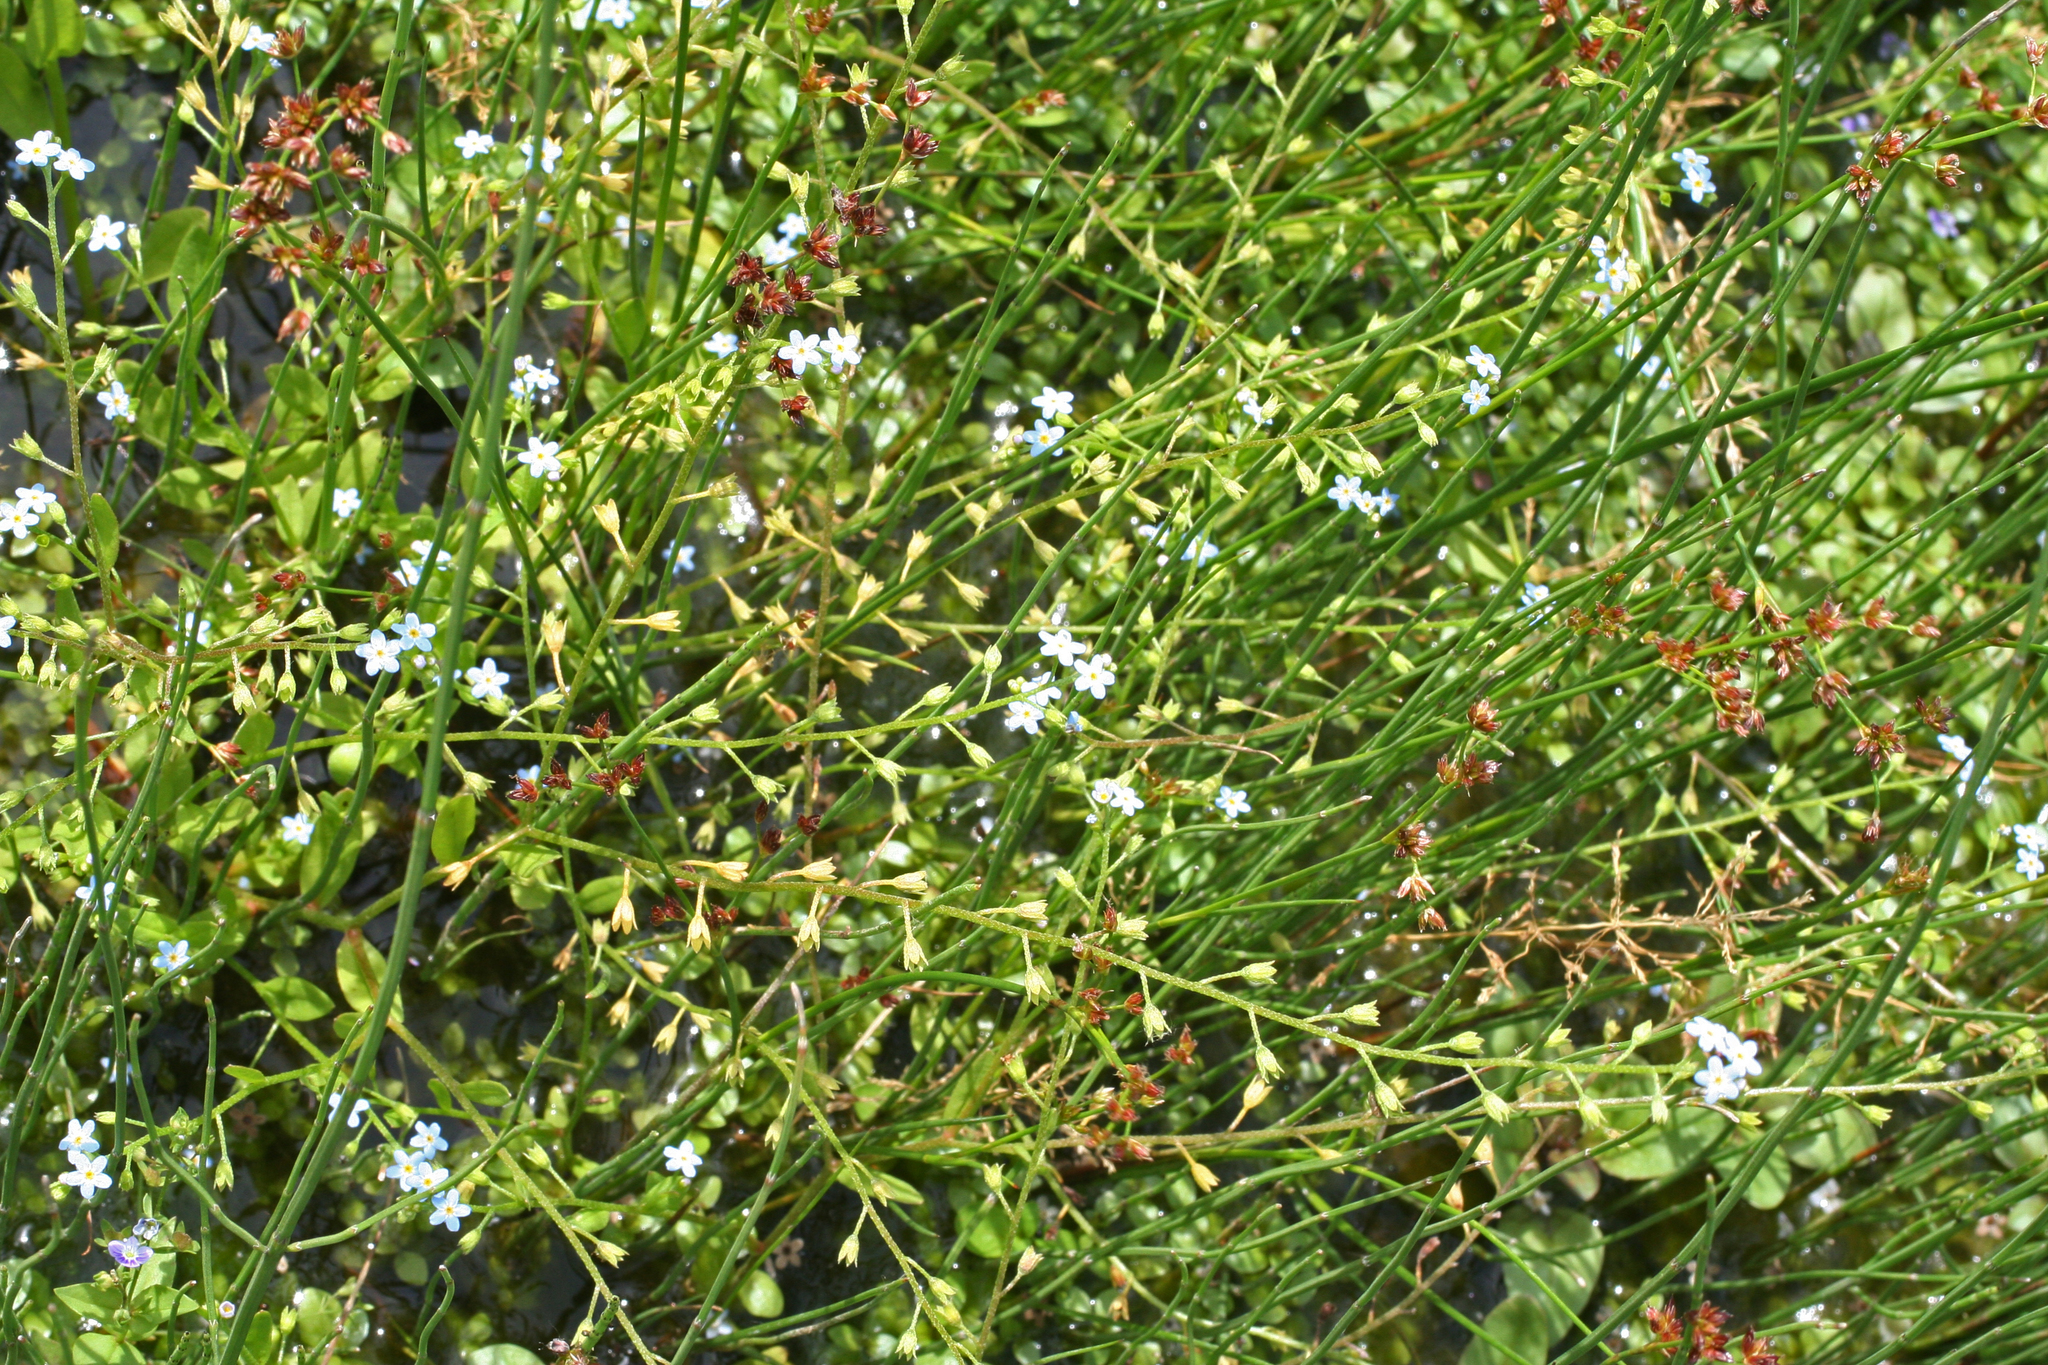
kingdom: Plantae
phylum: Tracheophyta
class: Magnoliopsida
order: Boraginales
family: Boraginaceae
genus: Myosotis
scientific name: Myosotis laxa
